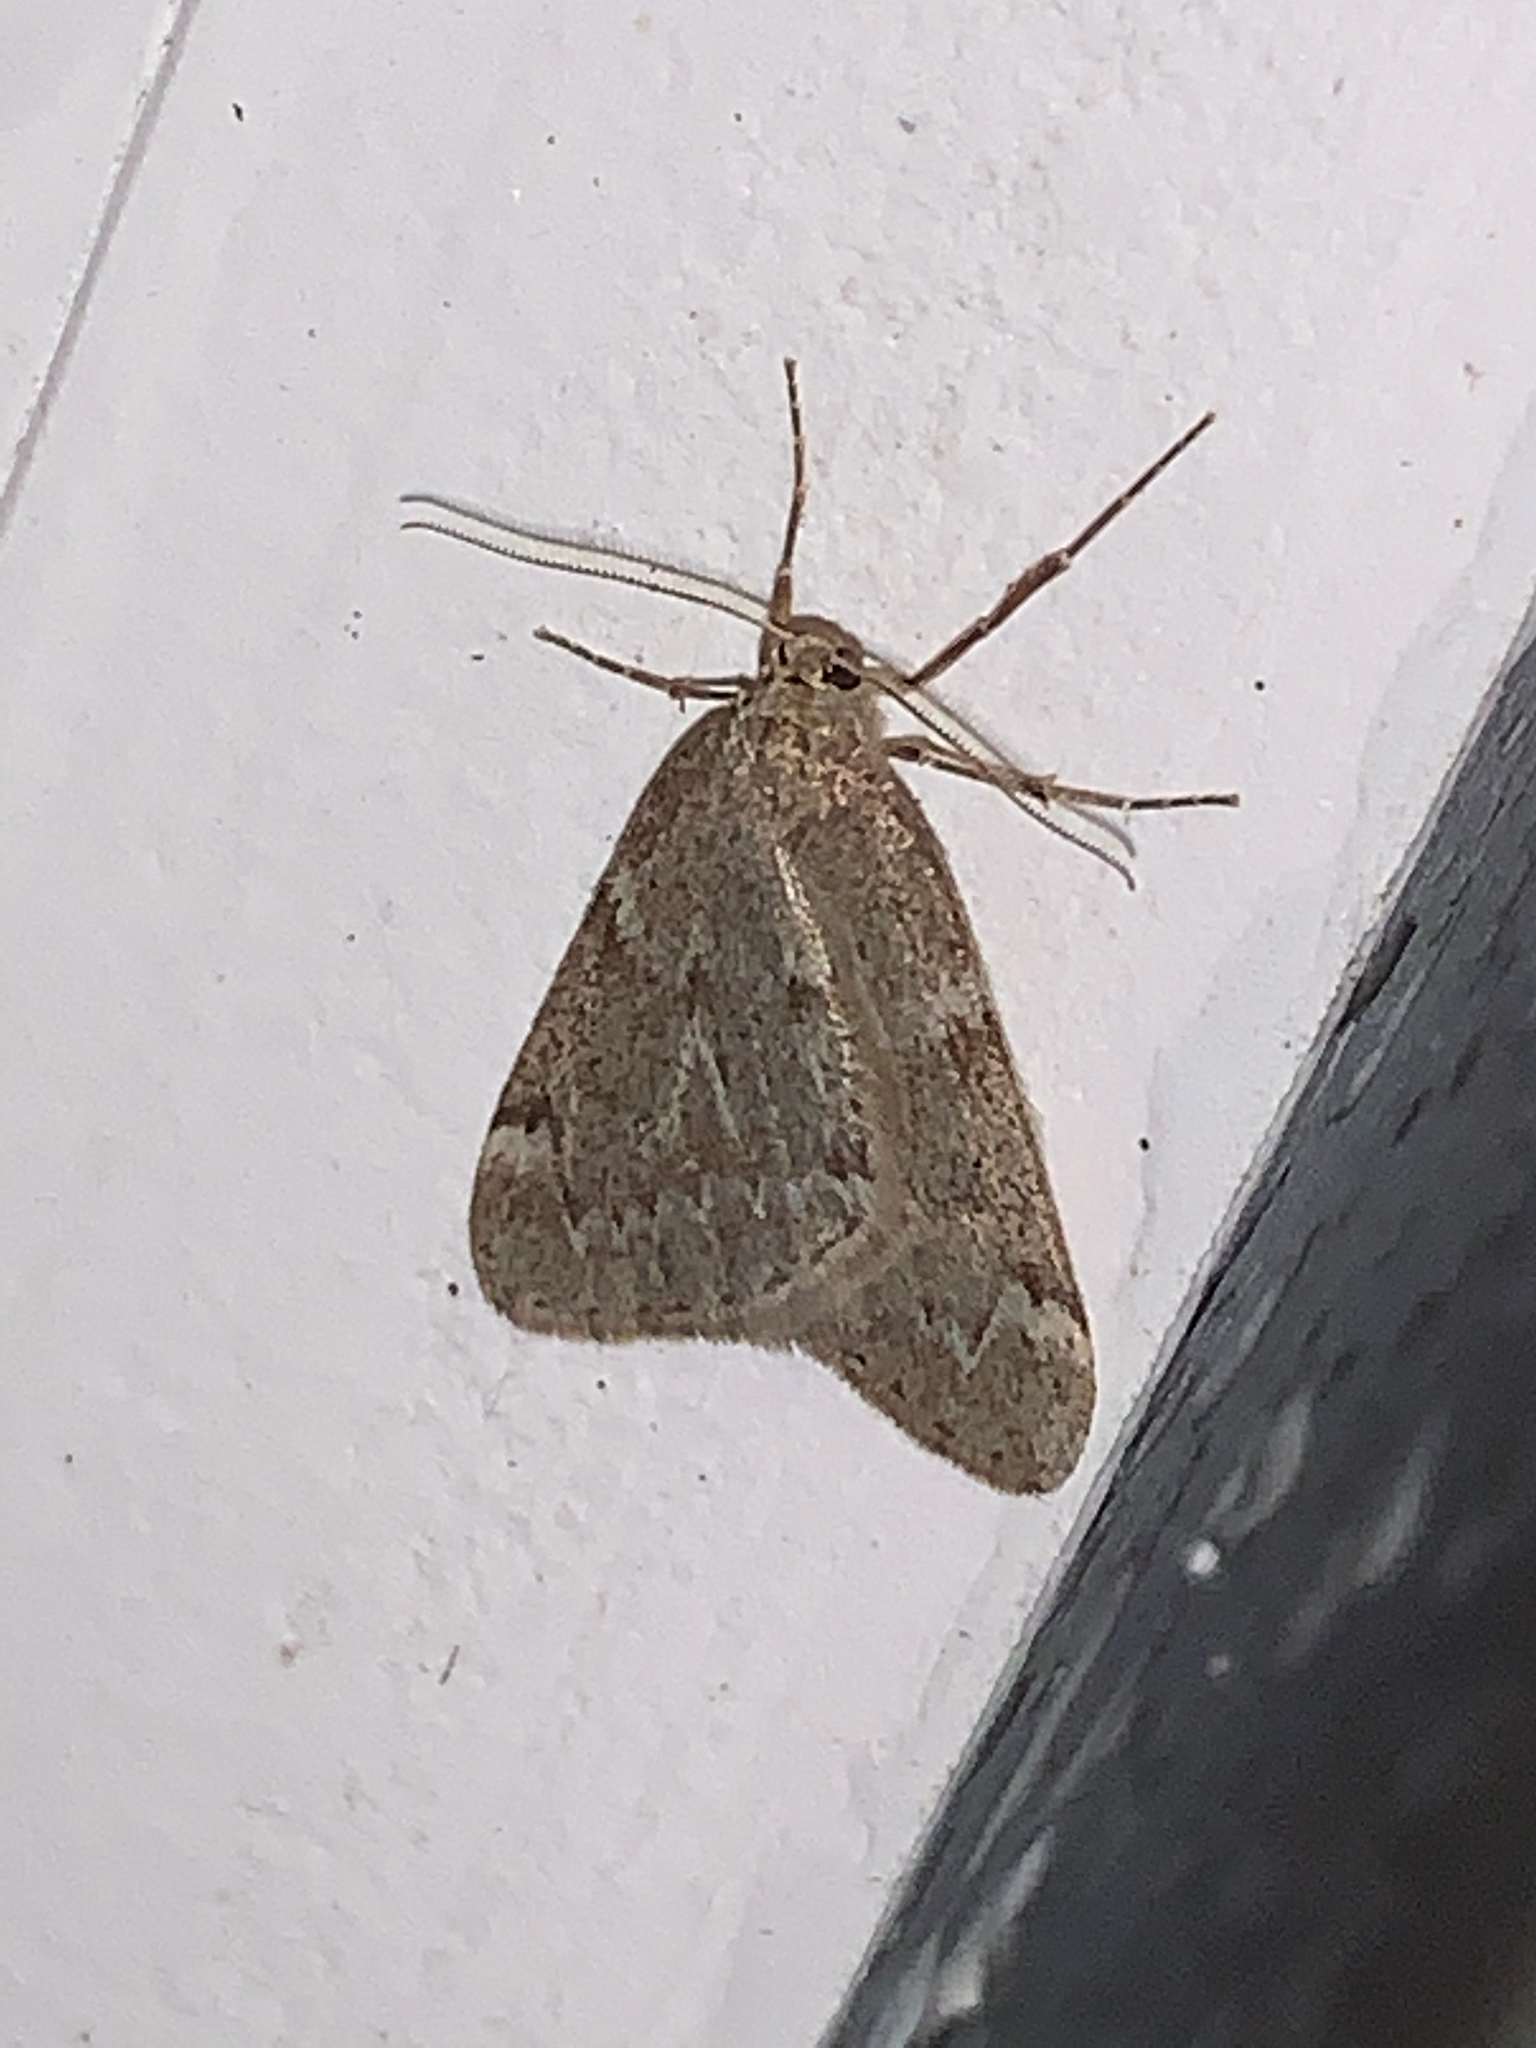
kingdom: Animalia
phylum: Arthropoda
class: Insecta
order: Lepidoptera
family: Geometridae
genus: Alsophila
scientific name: Alsophila pometaria
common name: Fall cankerworm
